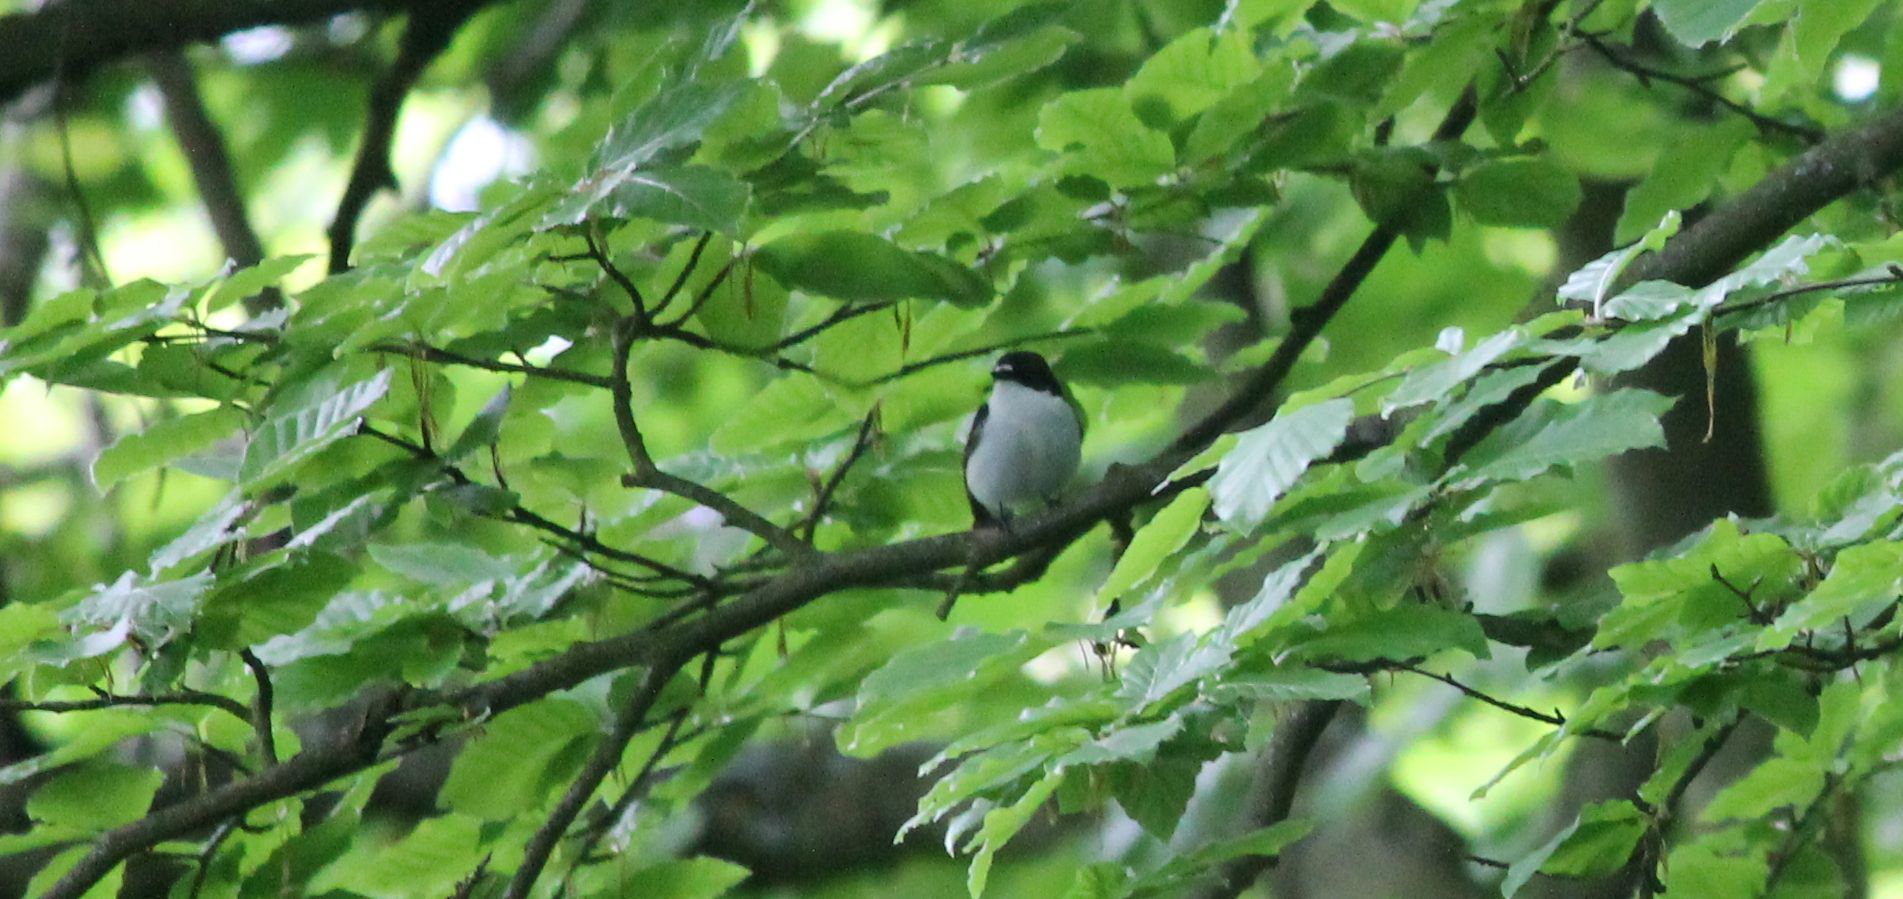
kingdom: Animalia
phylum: Chordata
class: Aves
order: Passeriformes
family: Muscicapidae
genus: Ficedula
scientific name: Ficedula hypoleuca
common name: European pied flycatcher
